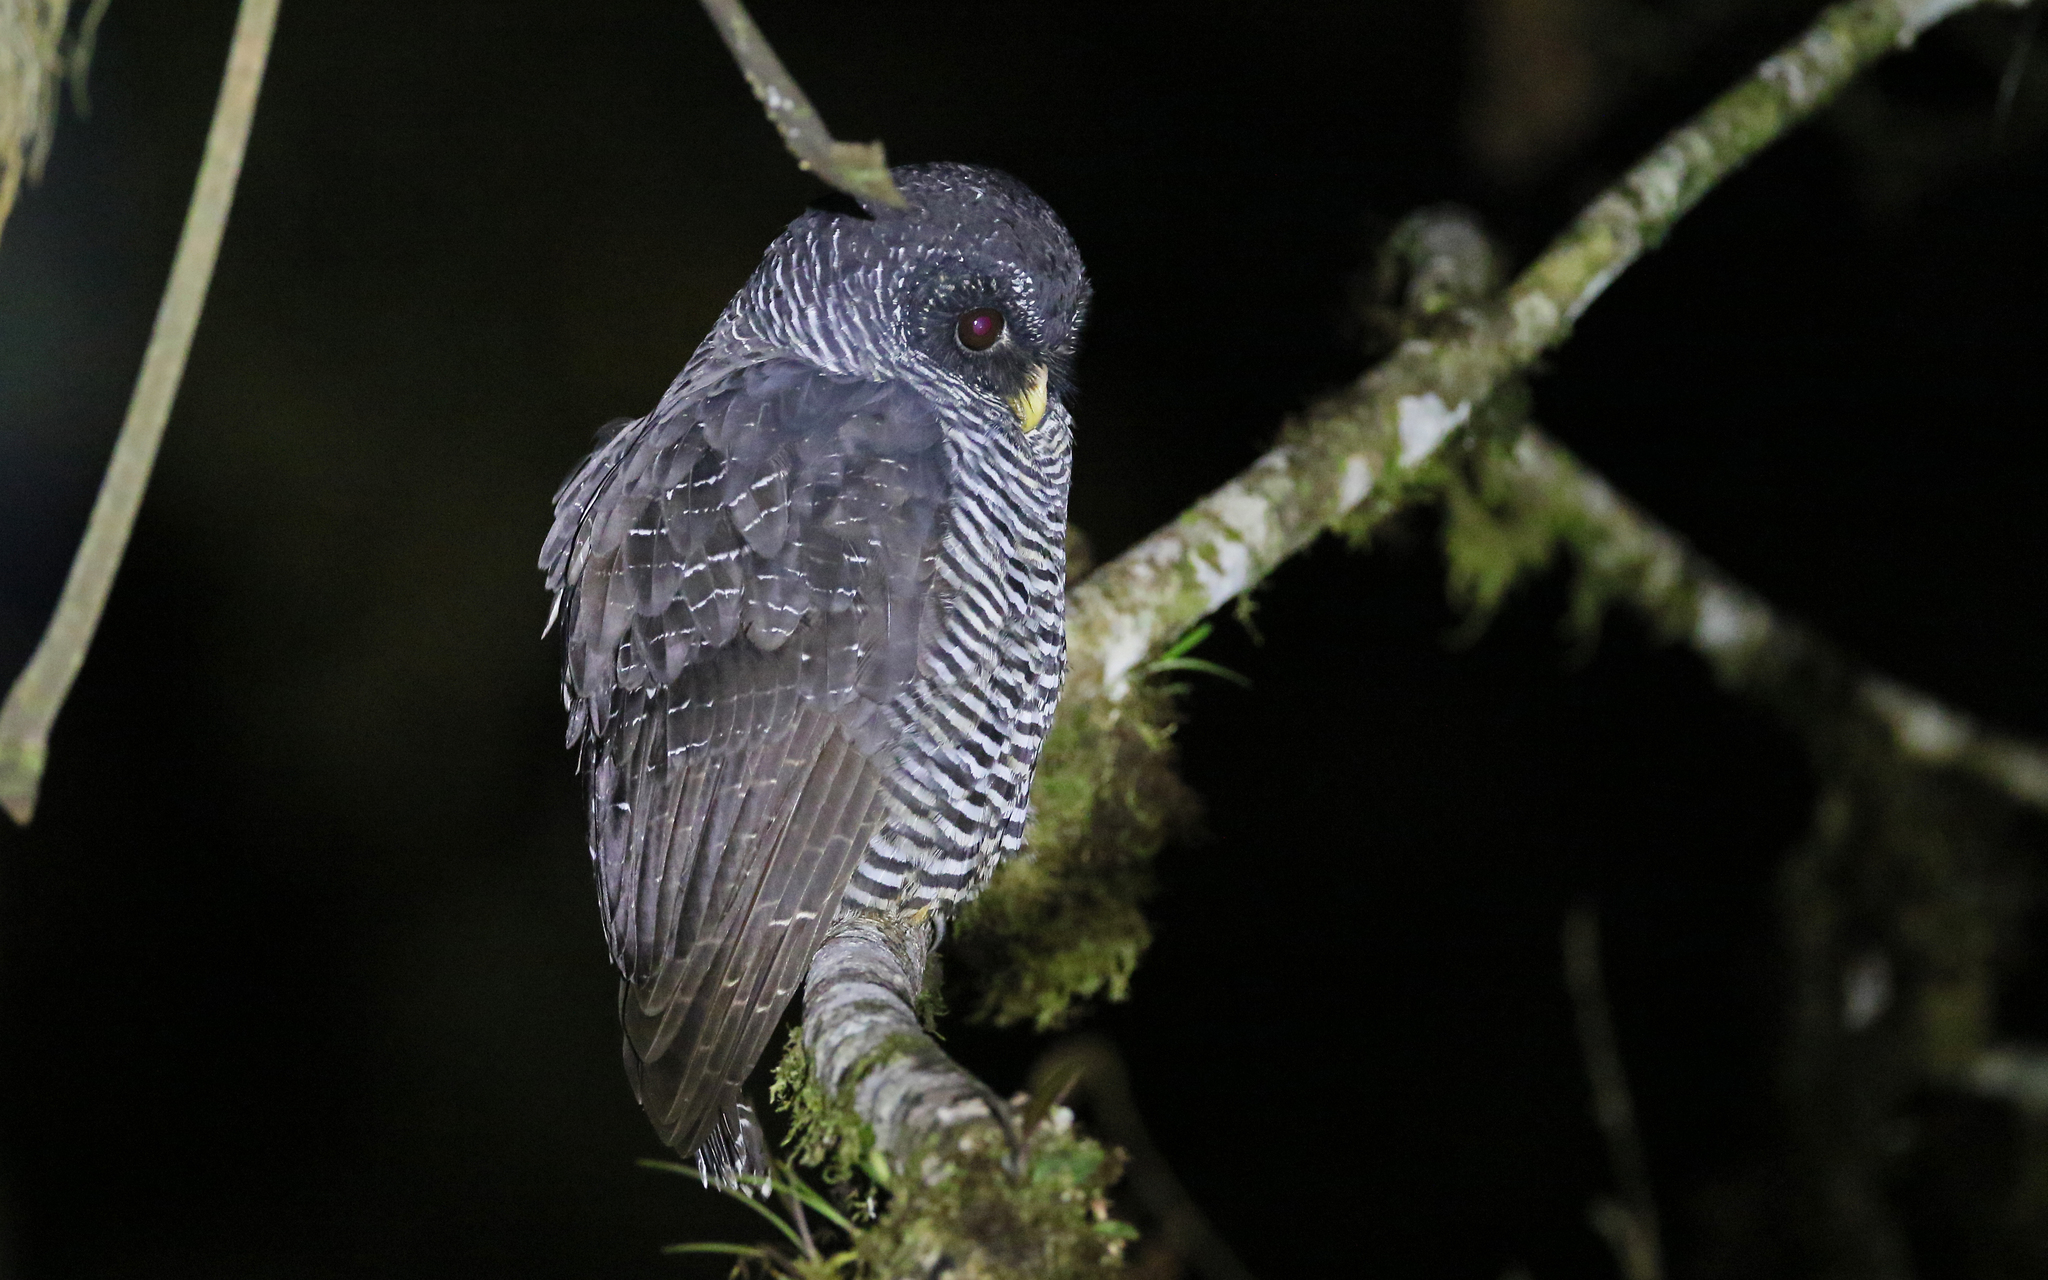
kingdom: Animalia
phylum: Chordata
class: Aves
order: Strigiformes
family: Strigidae
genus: Strix
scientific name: Strix huhula
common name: Black-banded owl
